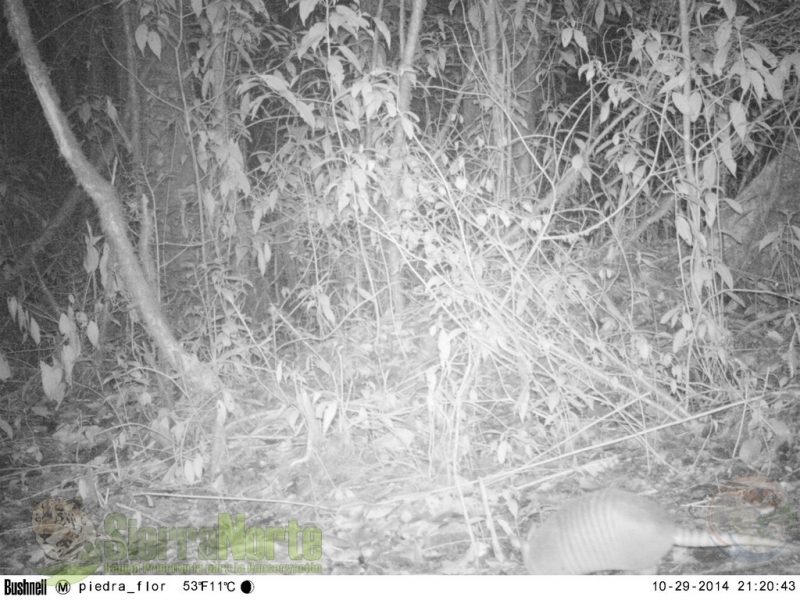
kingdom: Animalia
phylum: Chordata
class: Mammalia
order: Cingulata
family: Dasypodidae
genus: Dasypus
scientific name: Dasypus novemcinctus
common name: Nine-banded armadillo
